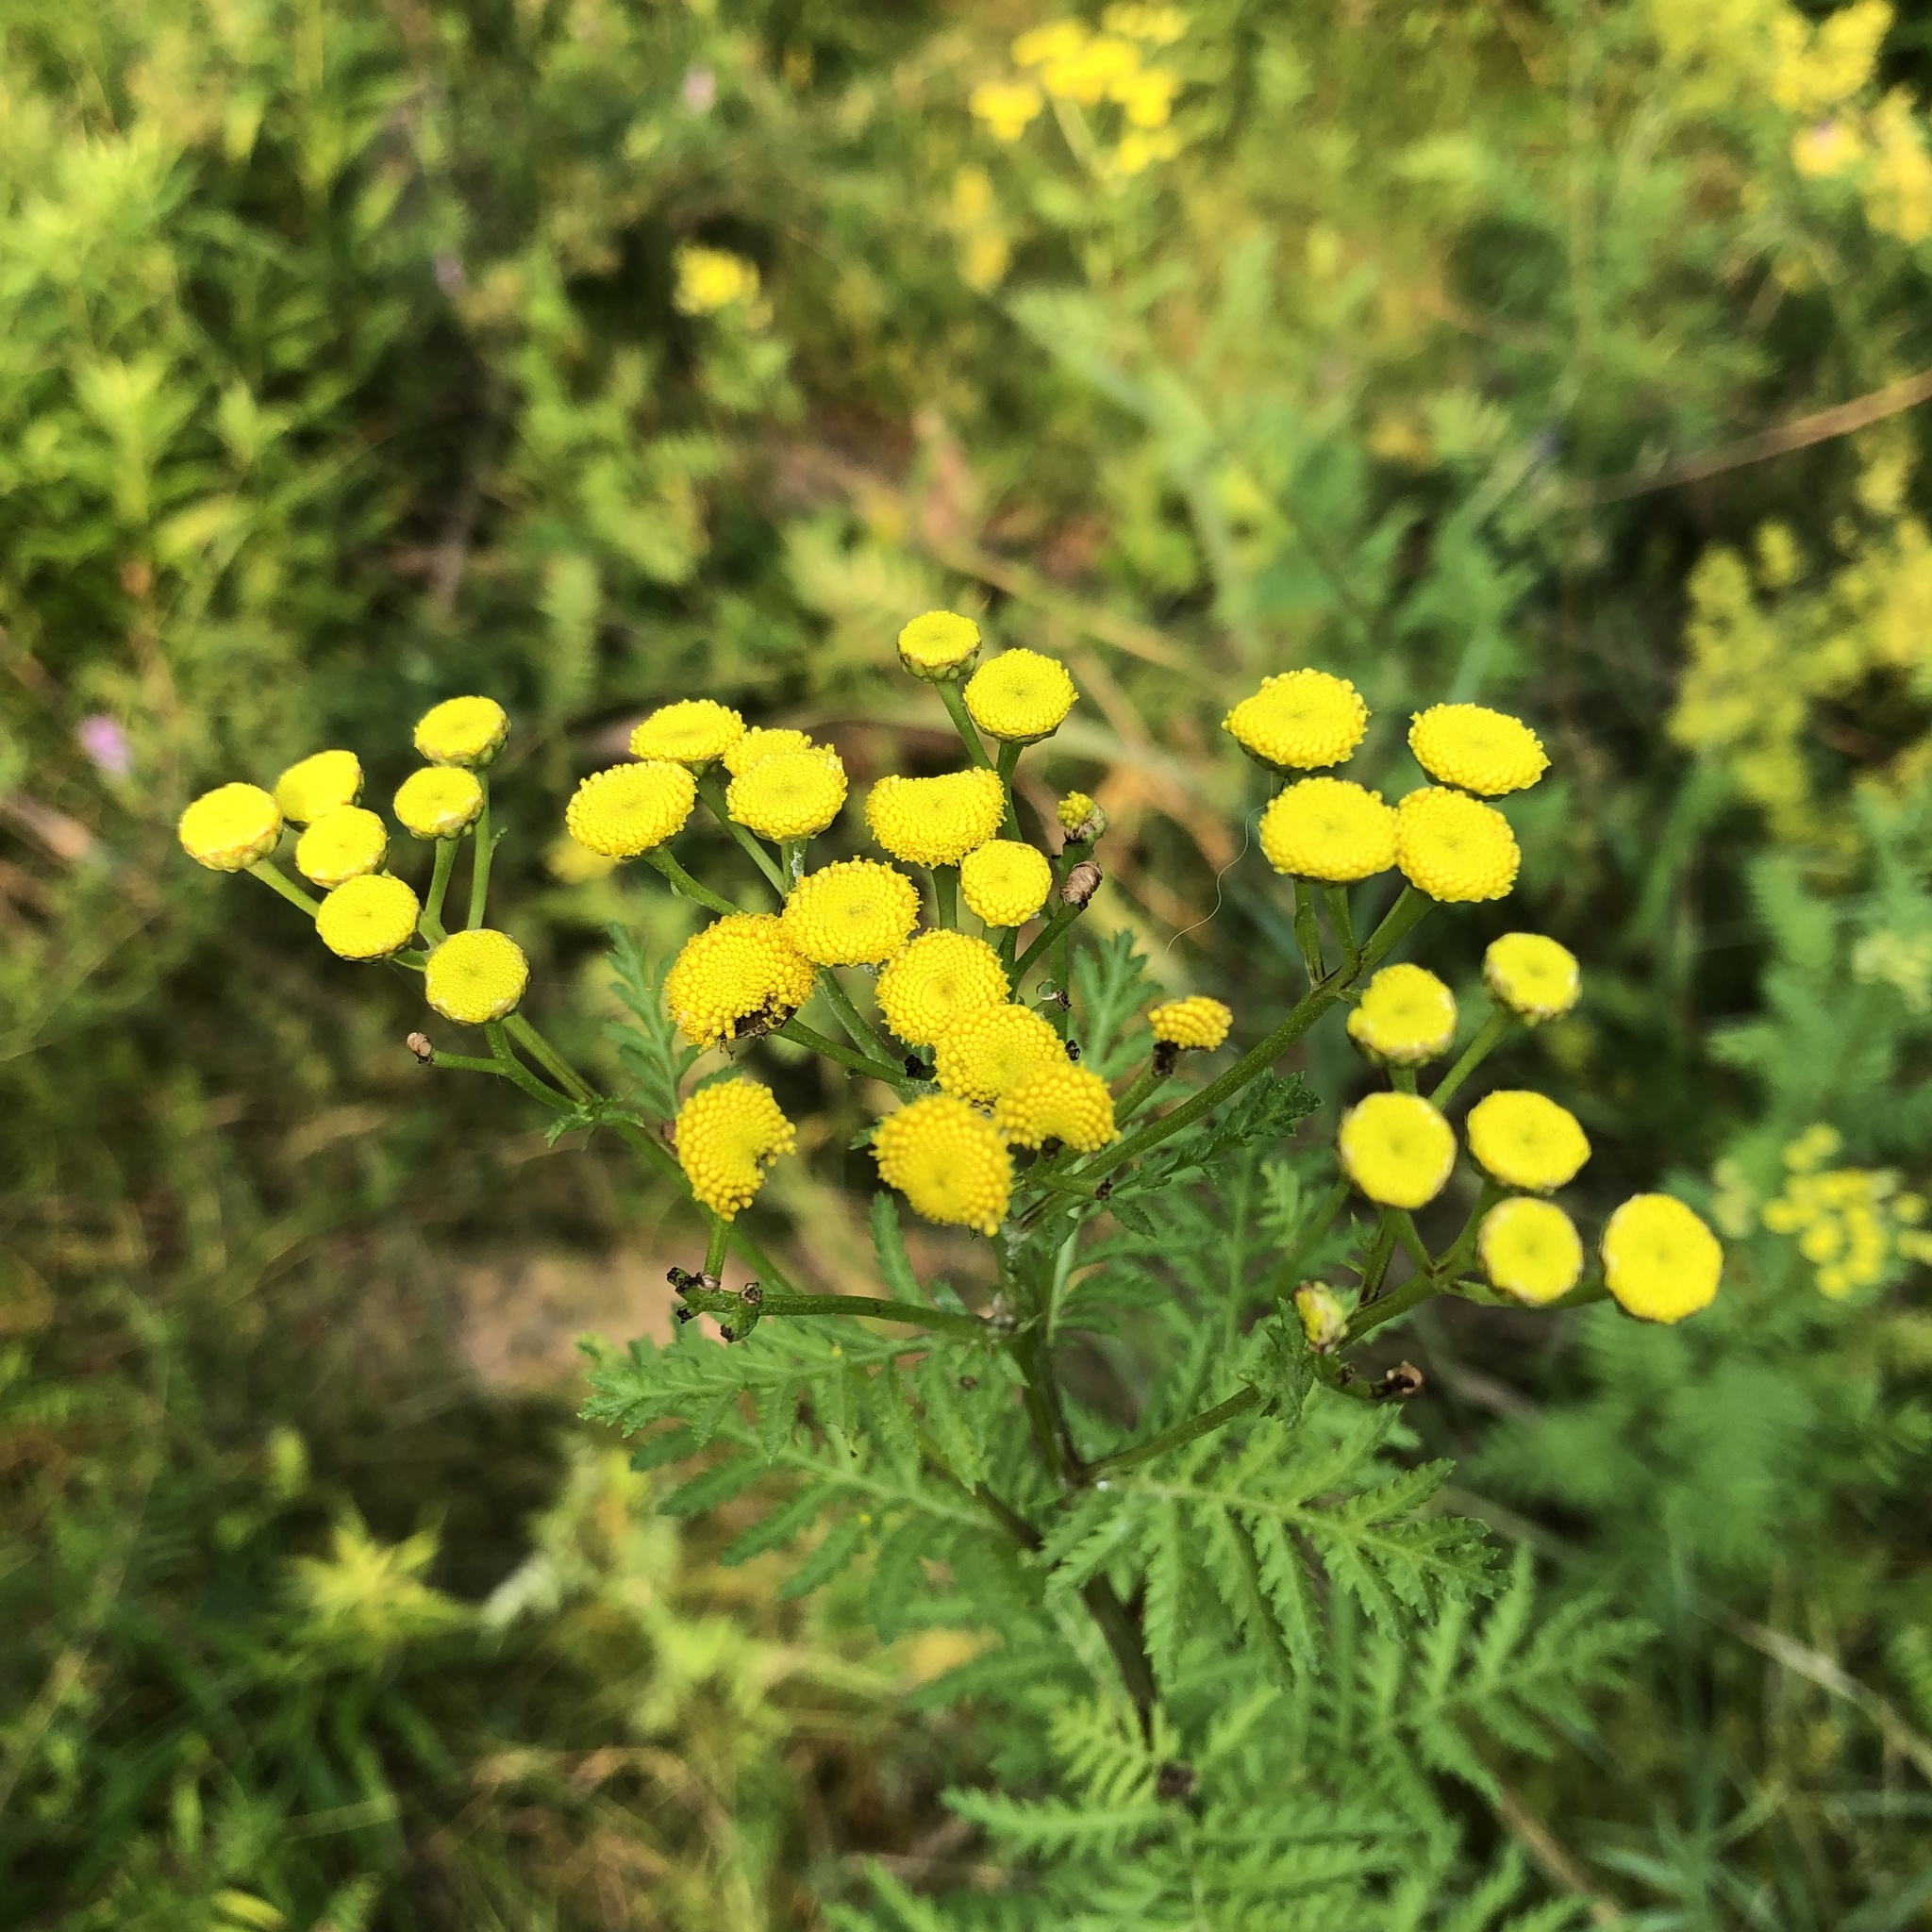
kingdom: Plantae
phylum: Tracheophyta
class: Magnoliopsida
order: Asterales
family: Asteraceae
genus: Tanacetum
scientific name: Tanacetum vulgare
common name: Common tansy
